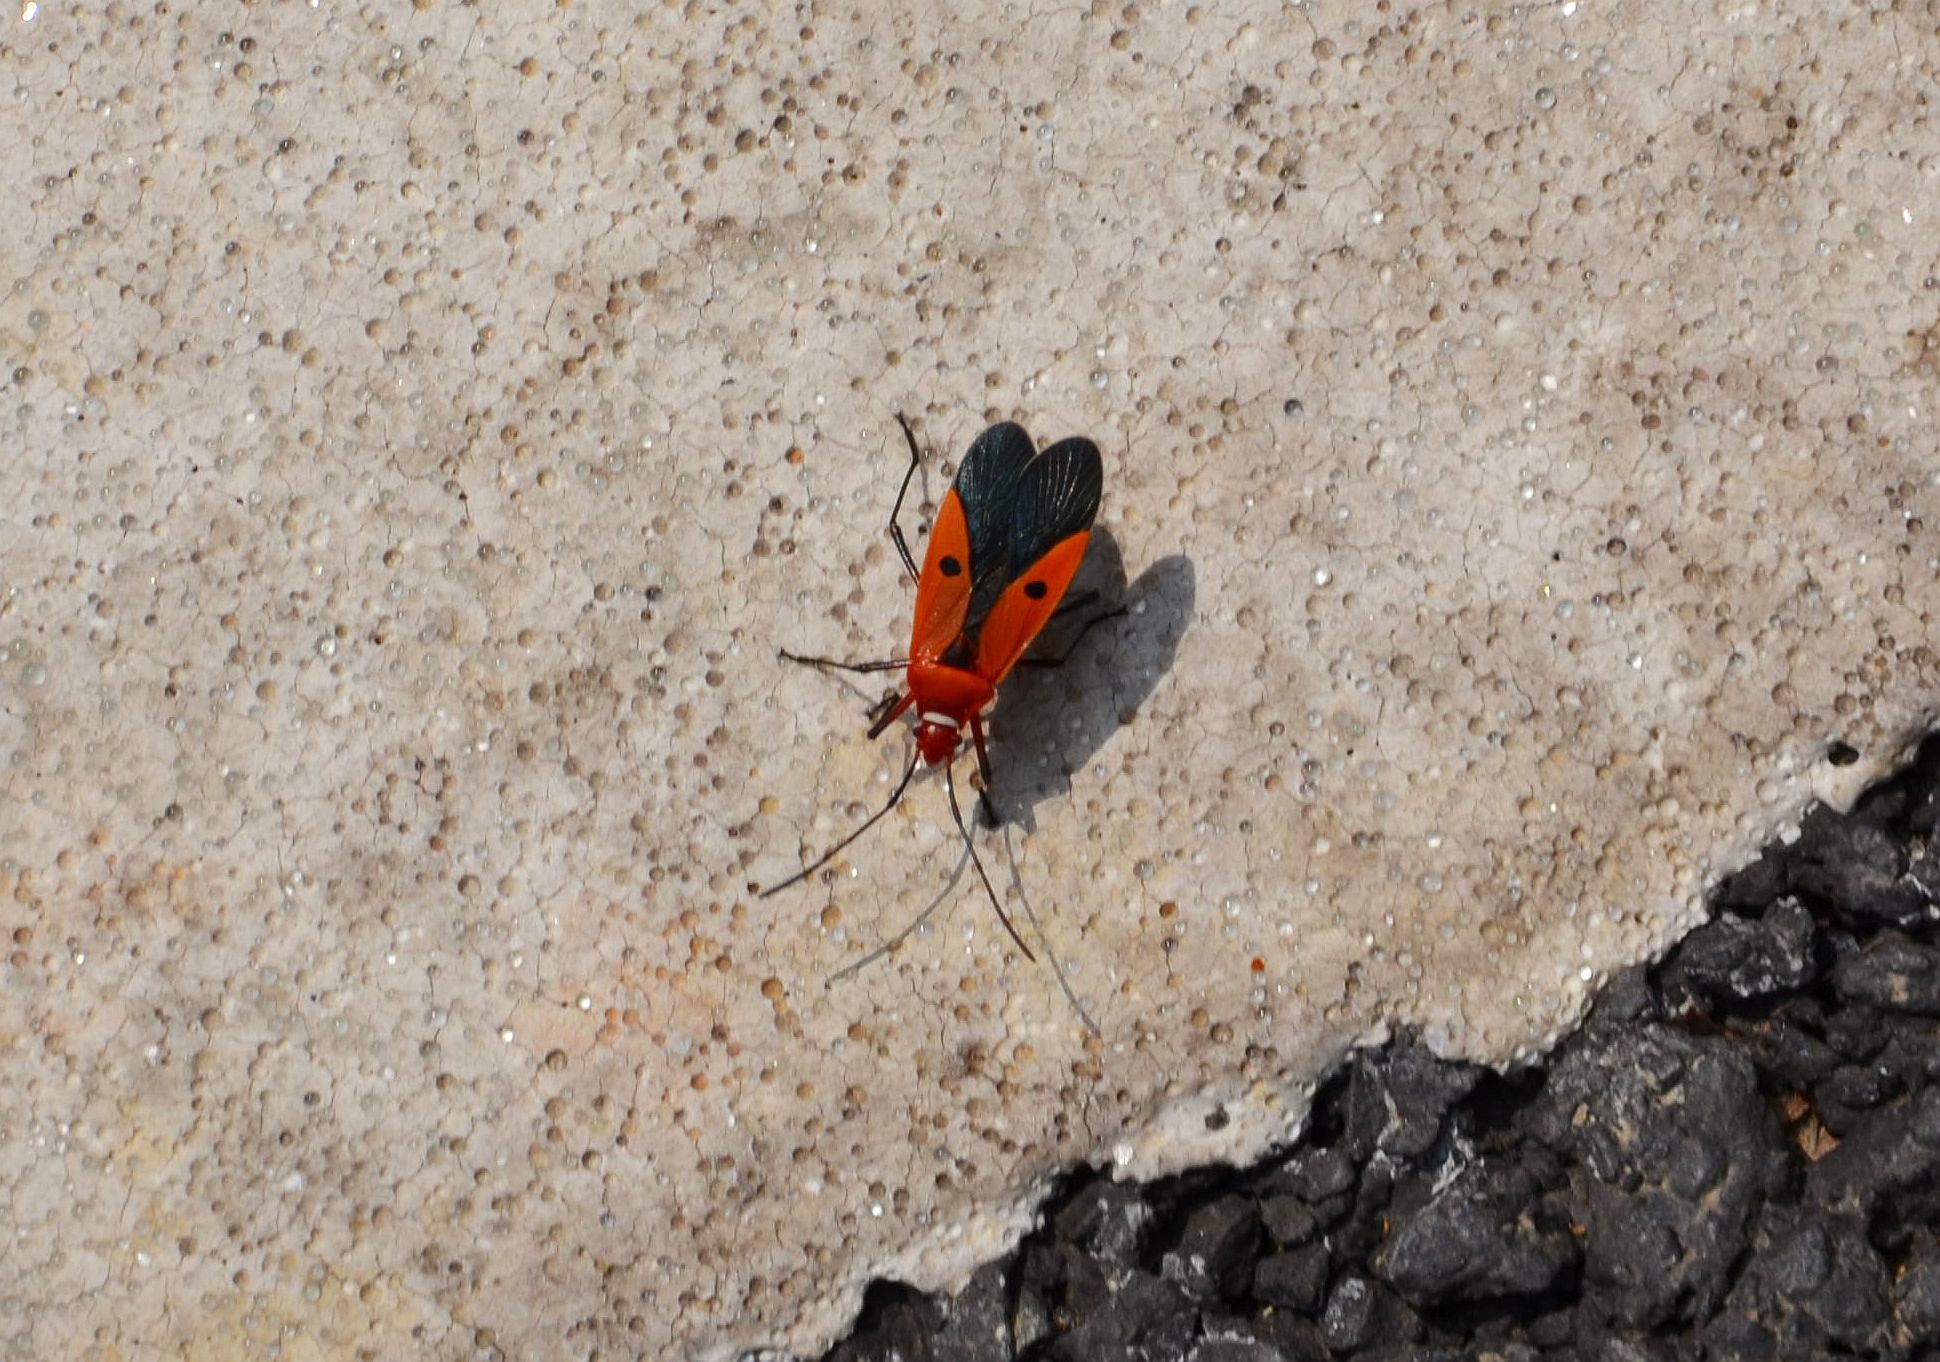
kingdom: Animalia
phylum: Arthropoda
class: Insecta
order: Hemiptera
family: Pyrrhocoridae
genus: Dysdercus
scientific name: Dysdercus cingulatus
